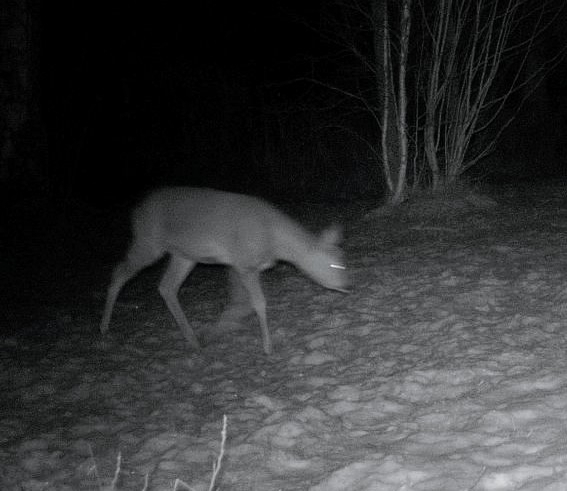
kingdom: Animalia
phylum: Chordata
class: Mammalia
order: Artiodactyla
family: Cervidae
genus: Capreolus
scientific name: Capreolus capreolus
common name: Western roe deer
